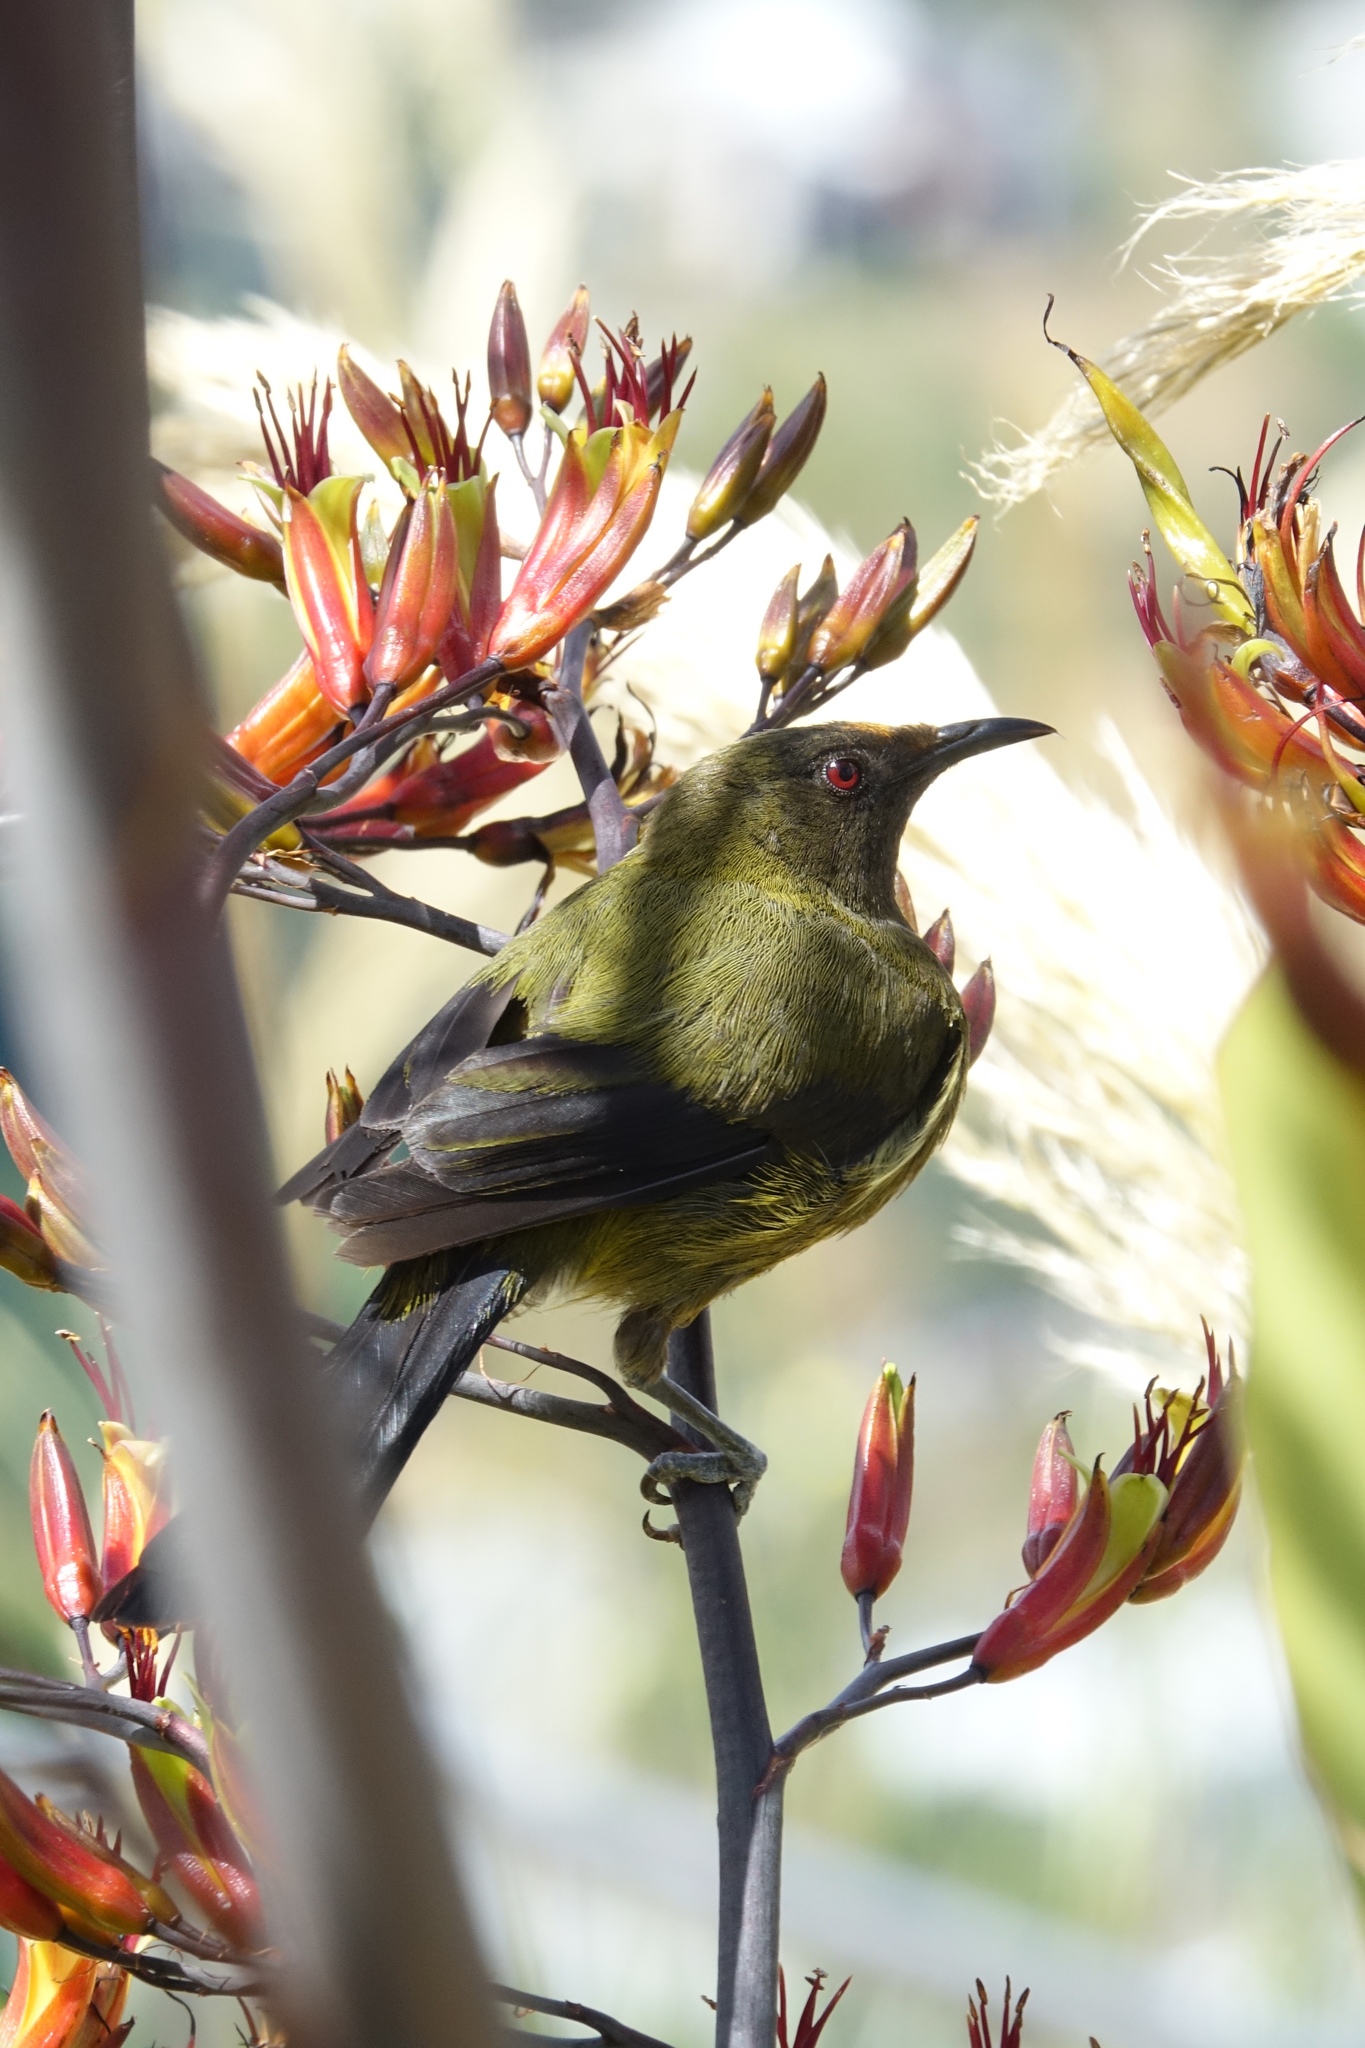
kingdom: Animalia
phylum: Chordata
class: Aves
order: Passeriformes
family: Meliphagidae
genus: Anthornis
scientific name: Anthornis melanura
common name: New zealand bellbird
